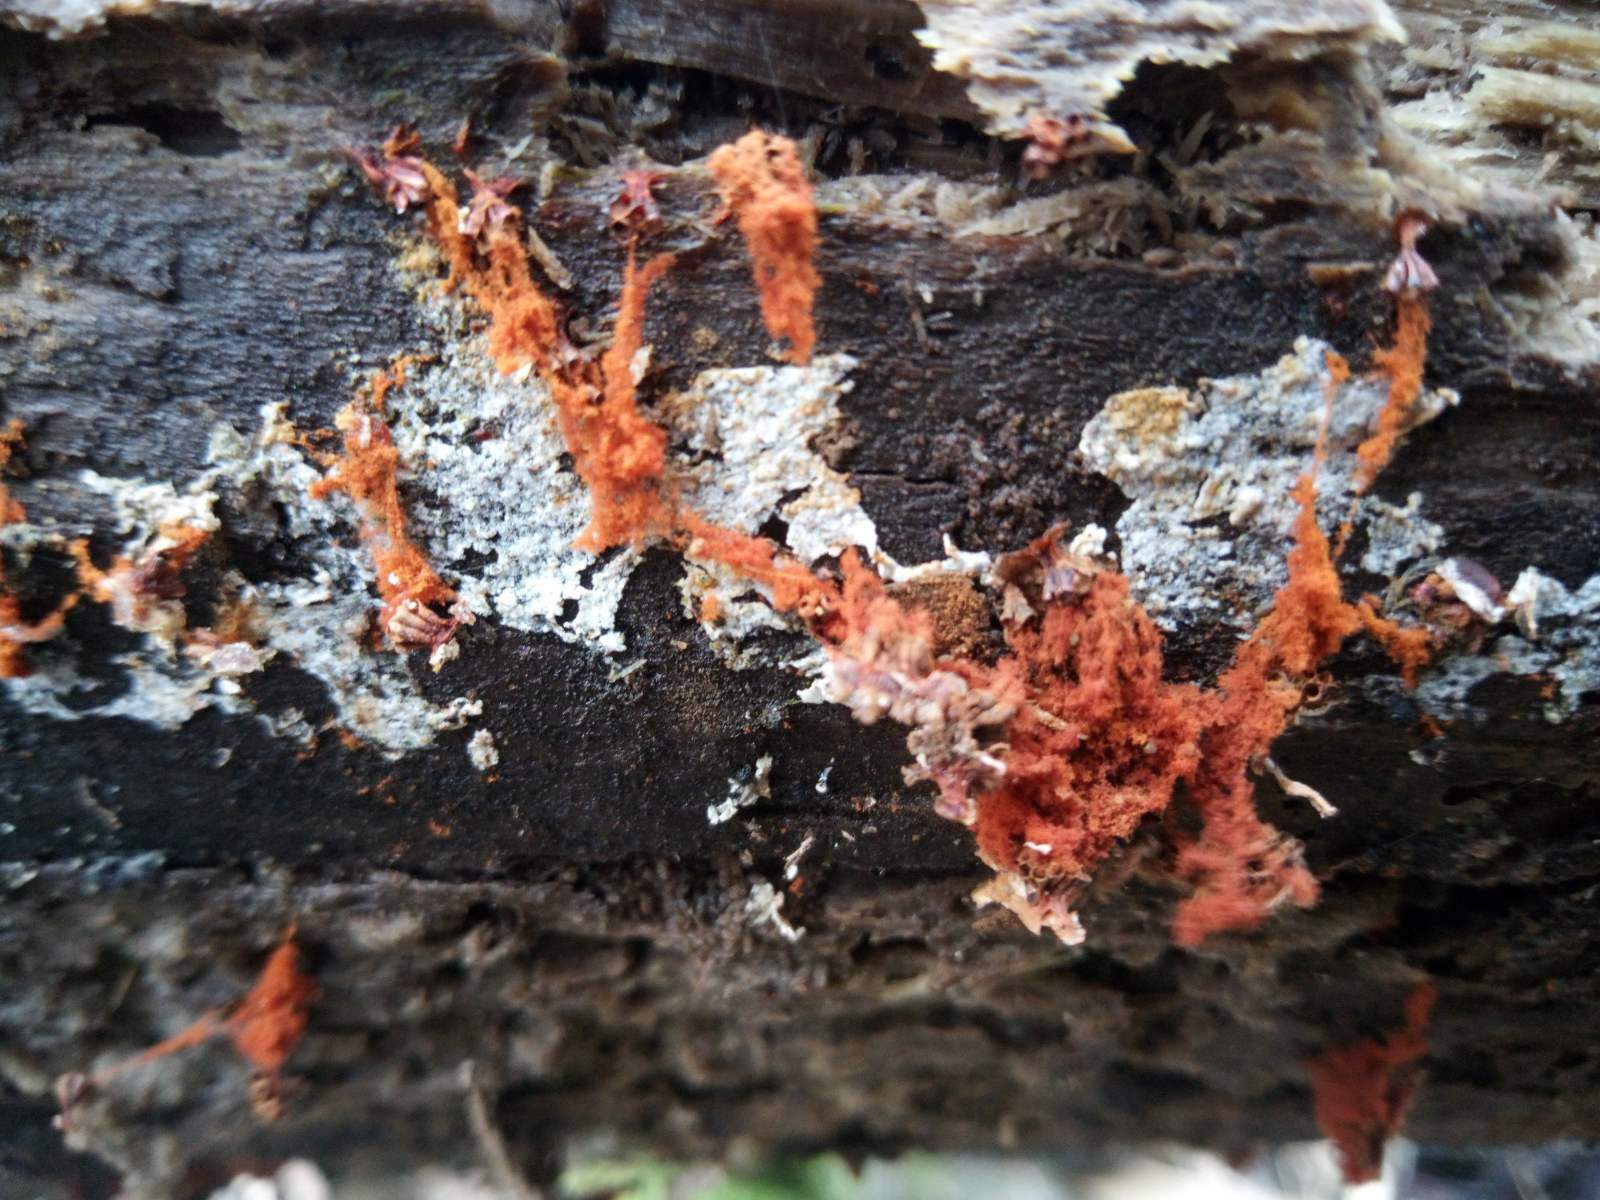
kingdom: Protozoa
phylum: Mycetozoa
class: Myxomycetes
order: Trichiales
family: Trichiaceae
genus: Metatrichia
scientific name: Metatrichia vesparia
